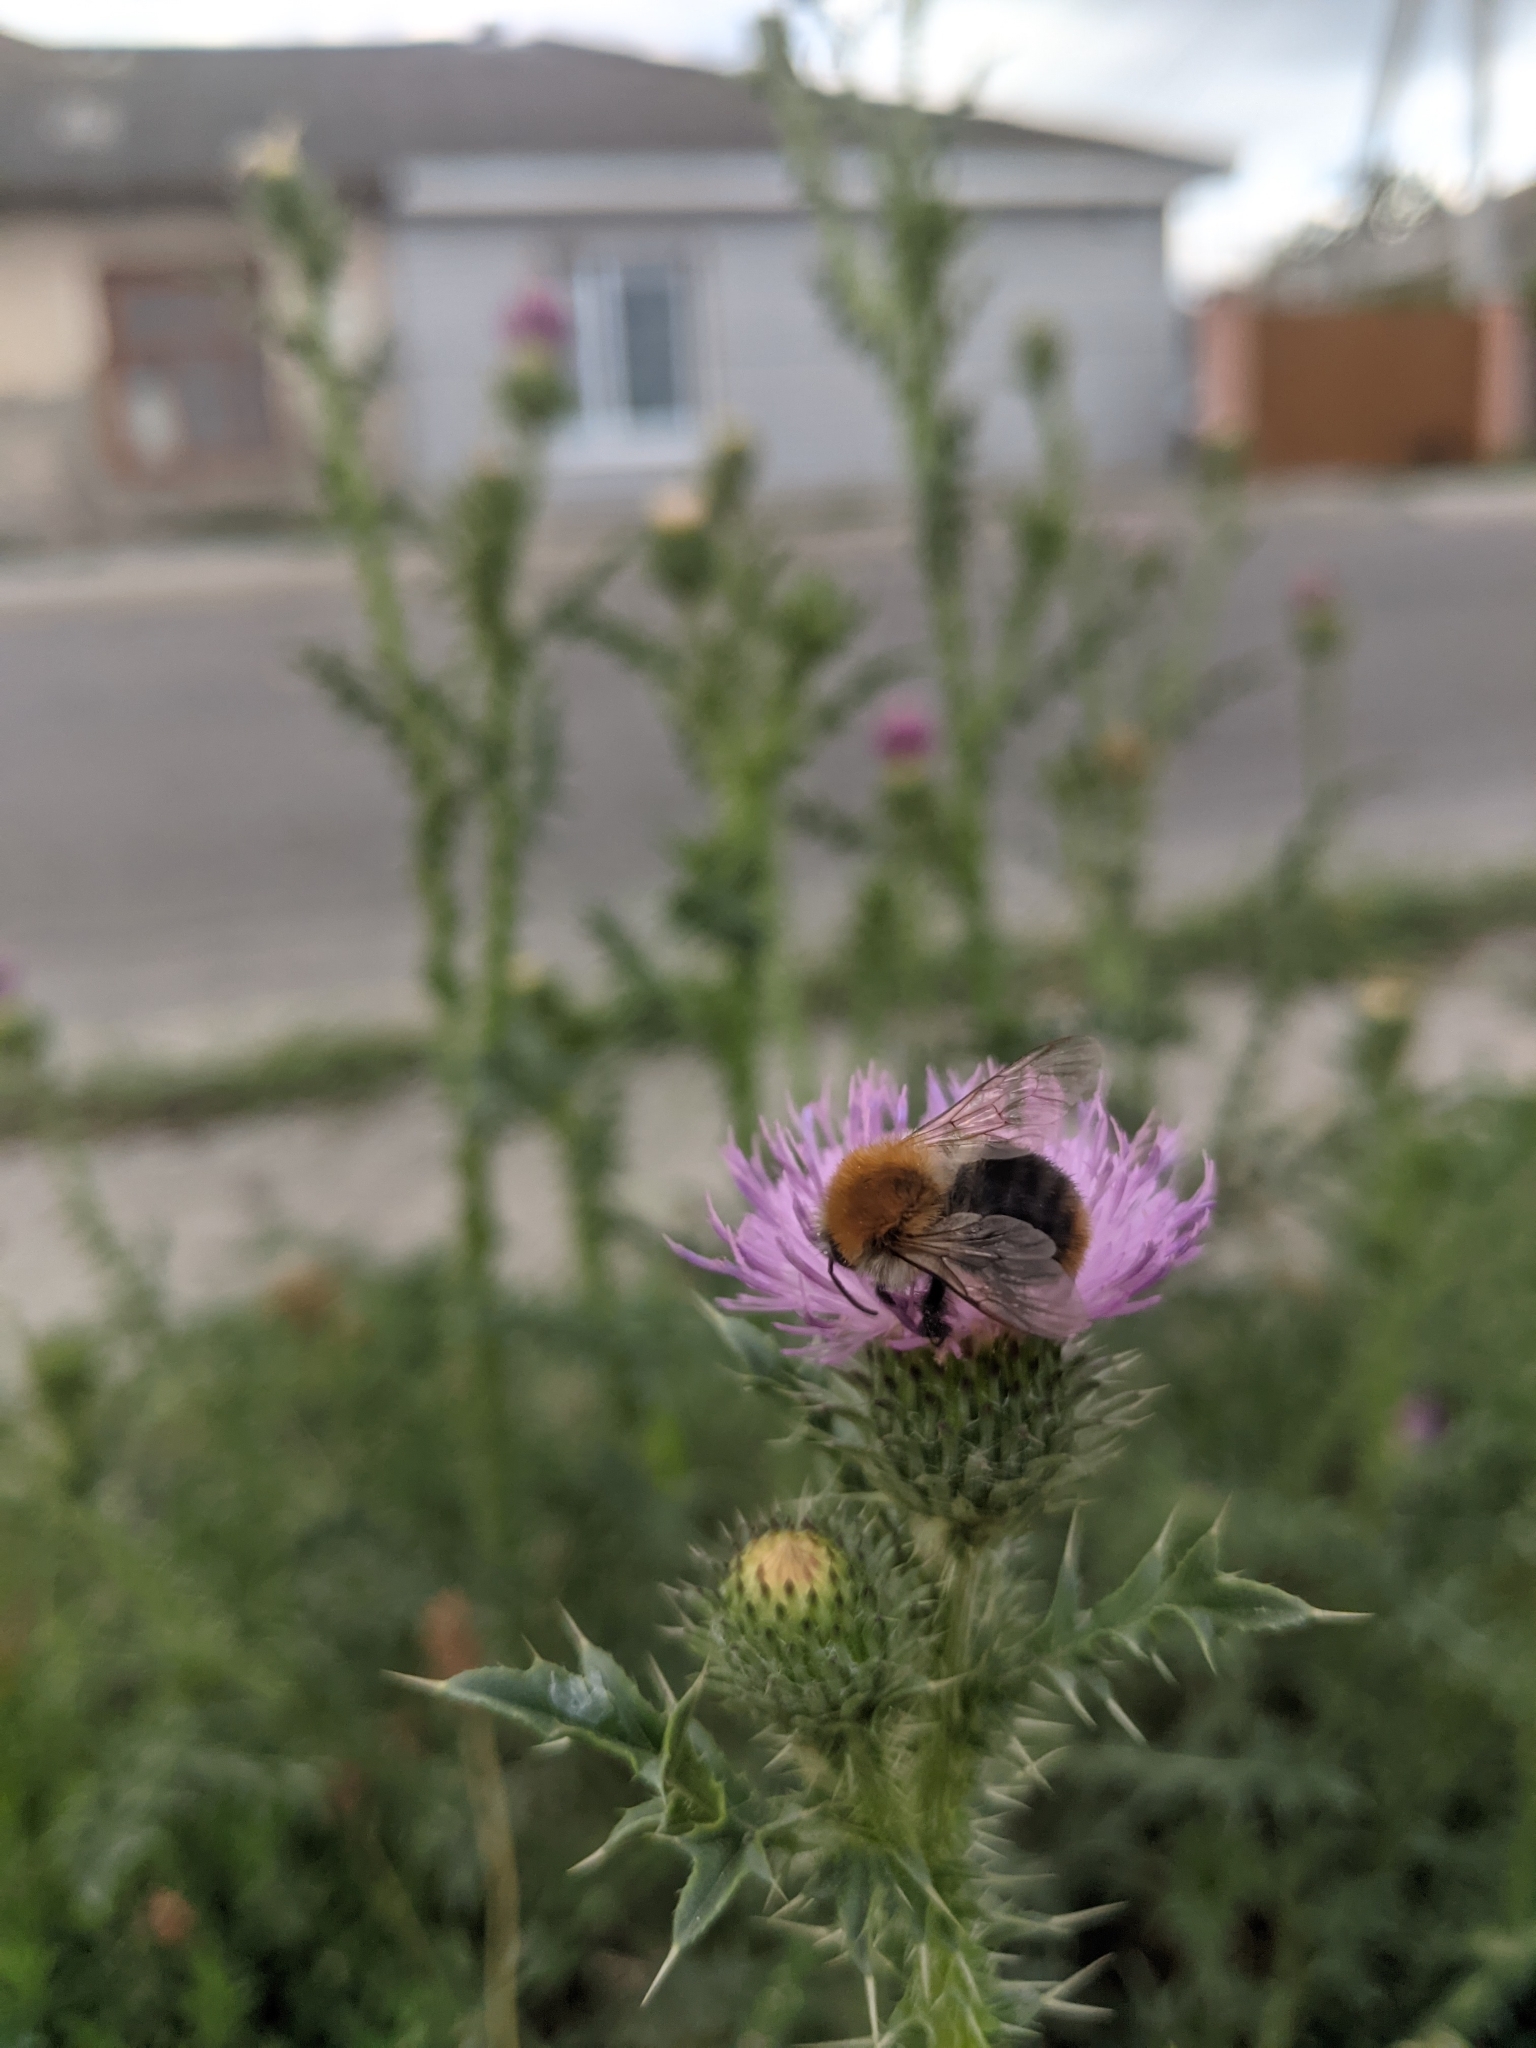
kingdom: Animalia
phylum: Arthropoda
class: Insecta
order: Hymenoptera
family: Apidae
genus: Bombus
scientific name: Bombus pascuorum
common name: Common carder bee
